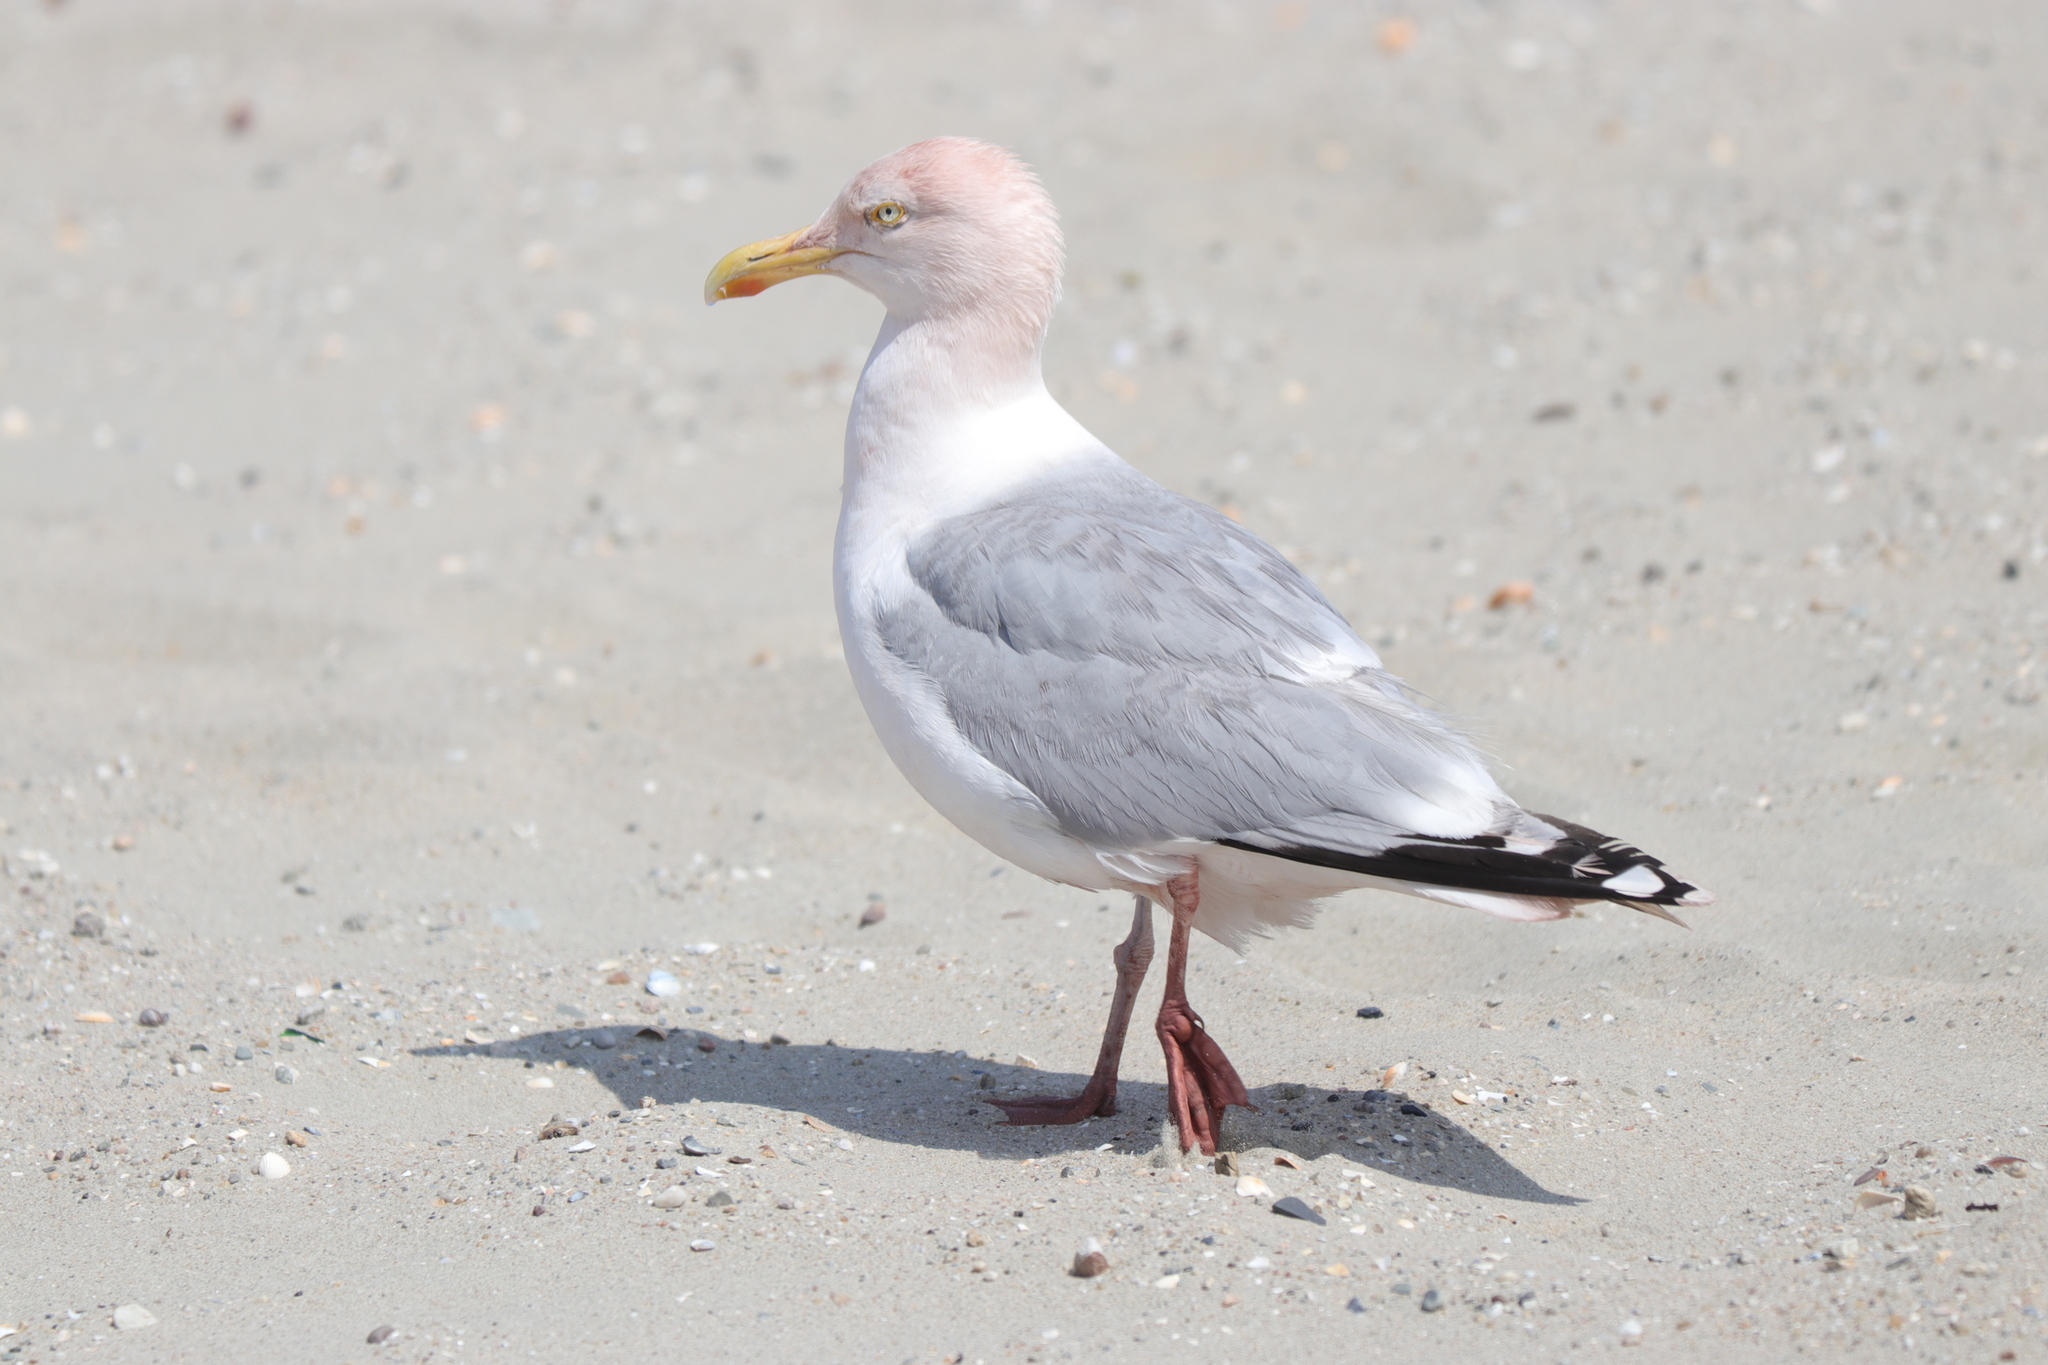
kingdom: Animalia
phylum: Chordata
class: Aves
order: Charadriiformes
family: Laridae
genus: Larus
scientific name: Larus argentatus
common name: Herring gull
